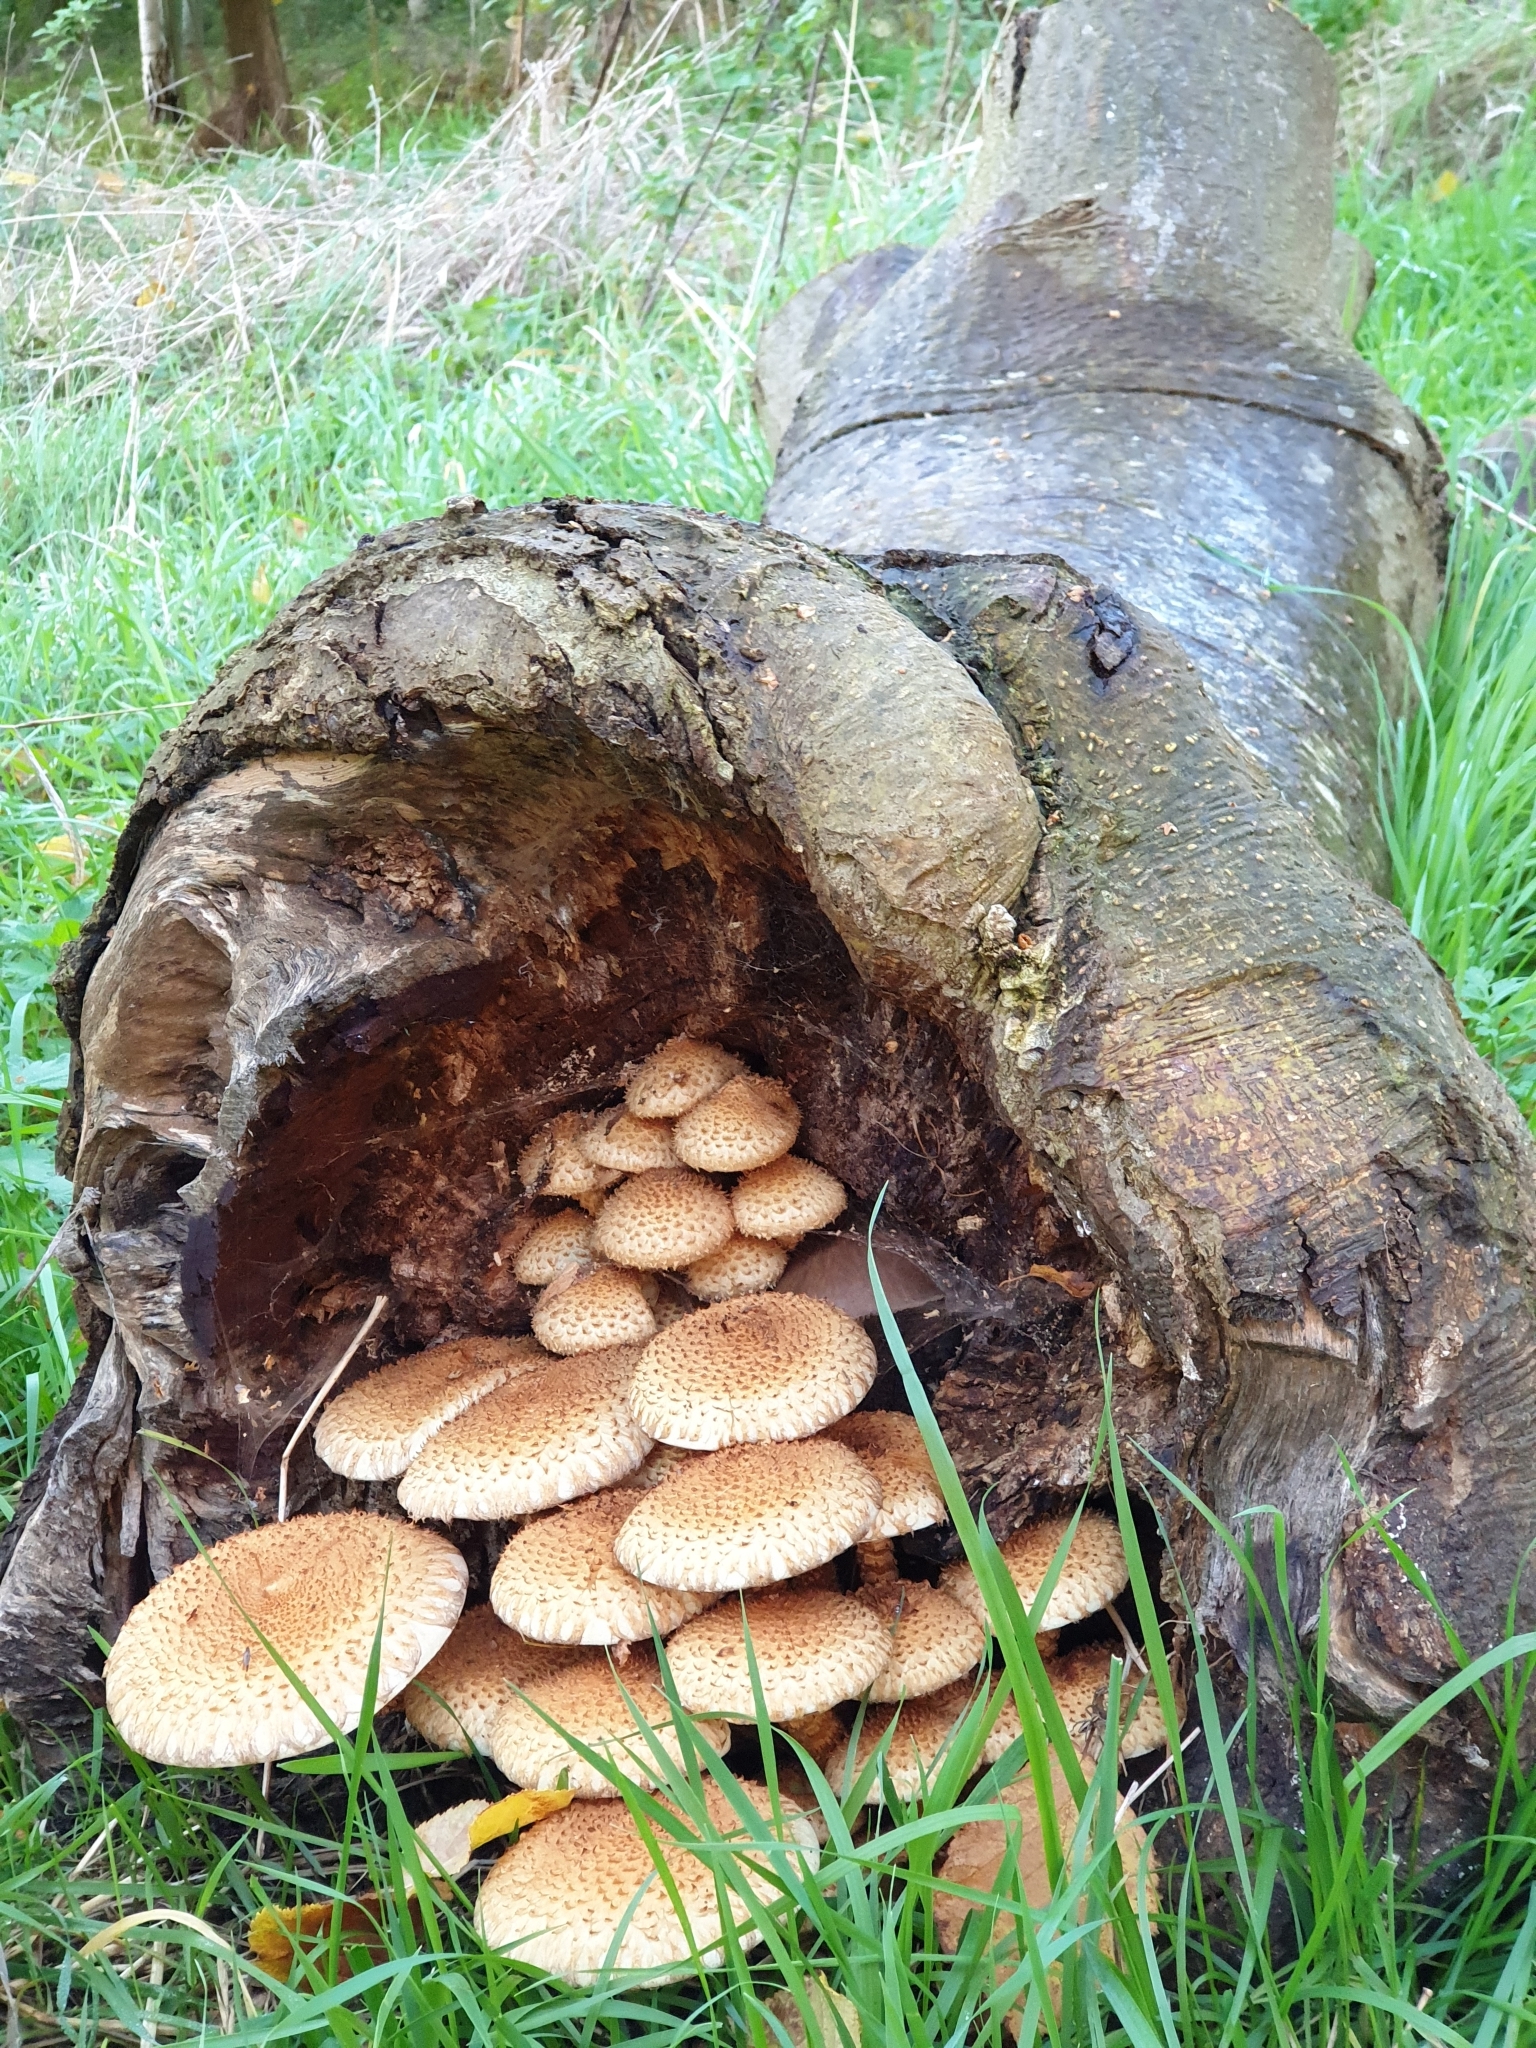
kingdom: Fungi
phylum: Basidiomycota
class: Agaricomycetes
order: Agaricales
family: Strophariaceae
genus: Pholiota
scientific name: Pholiota squarrosa
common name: Shaggy pholiota
